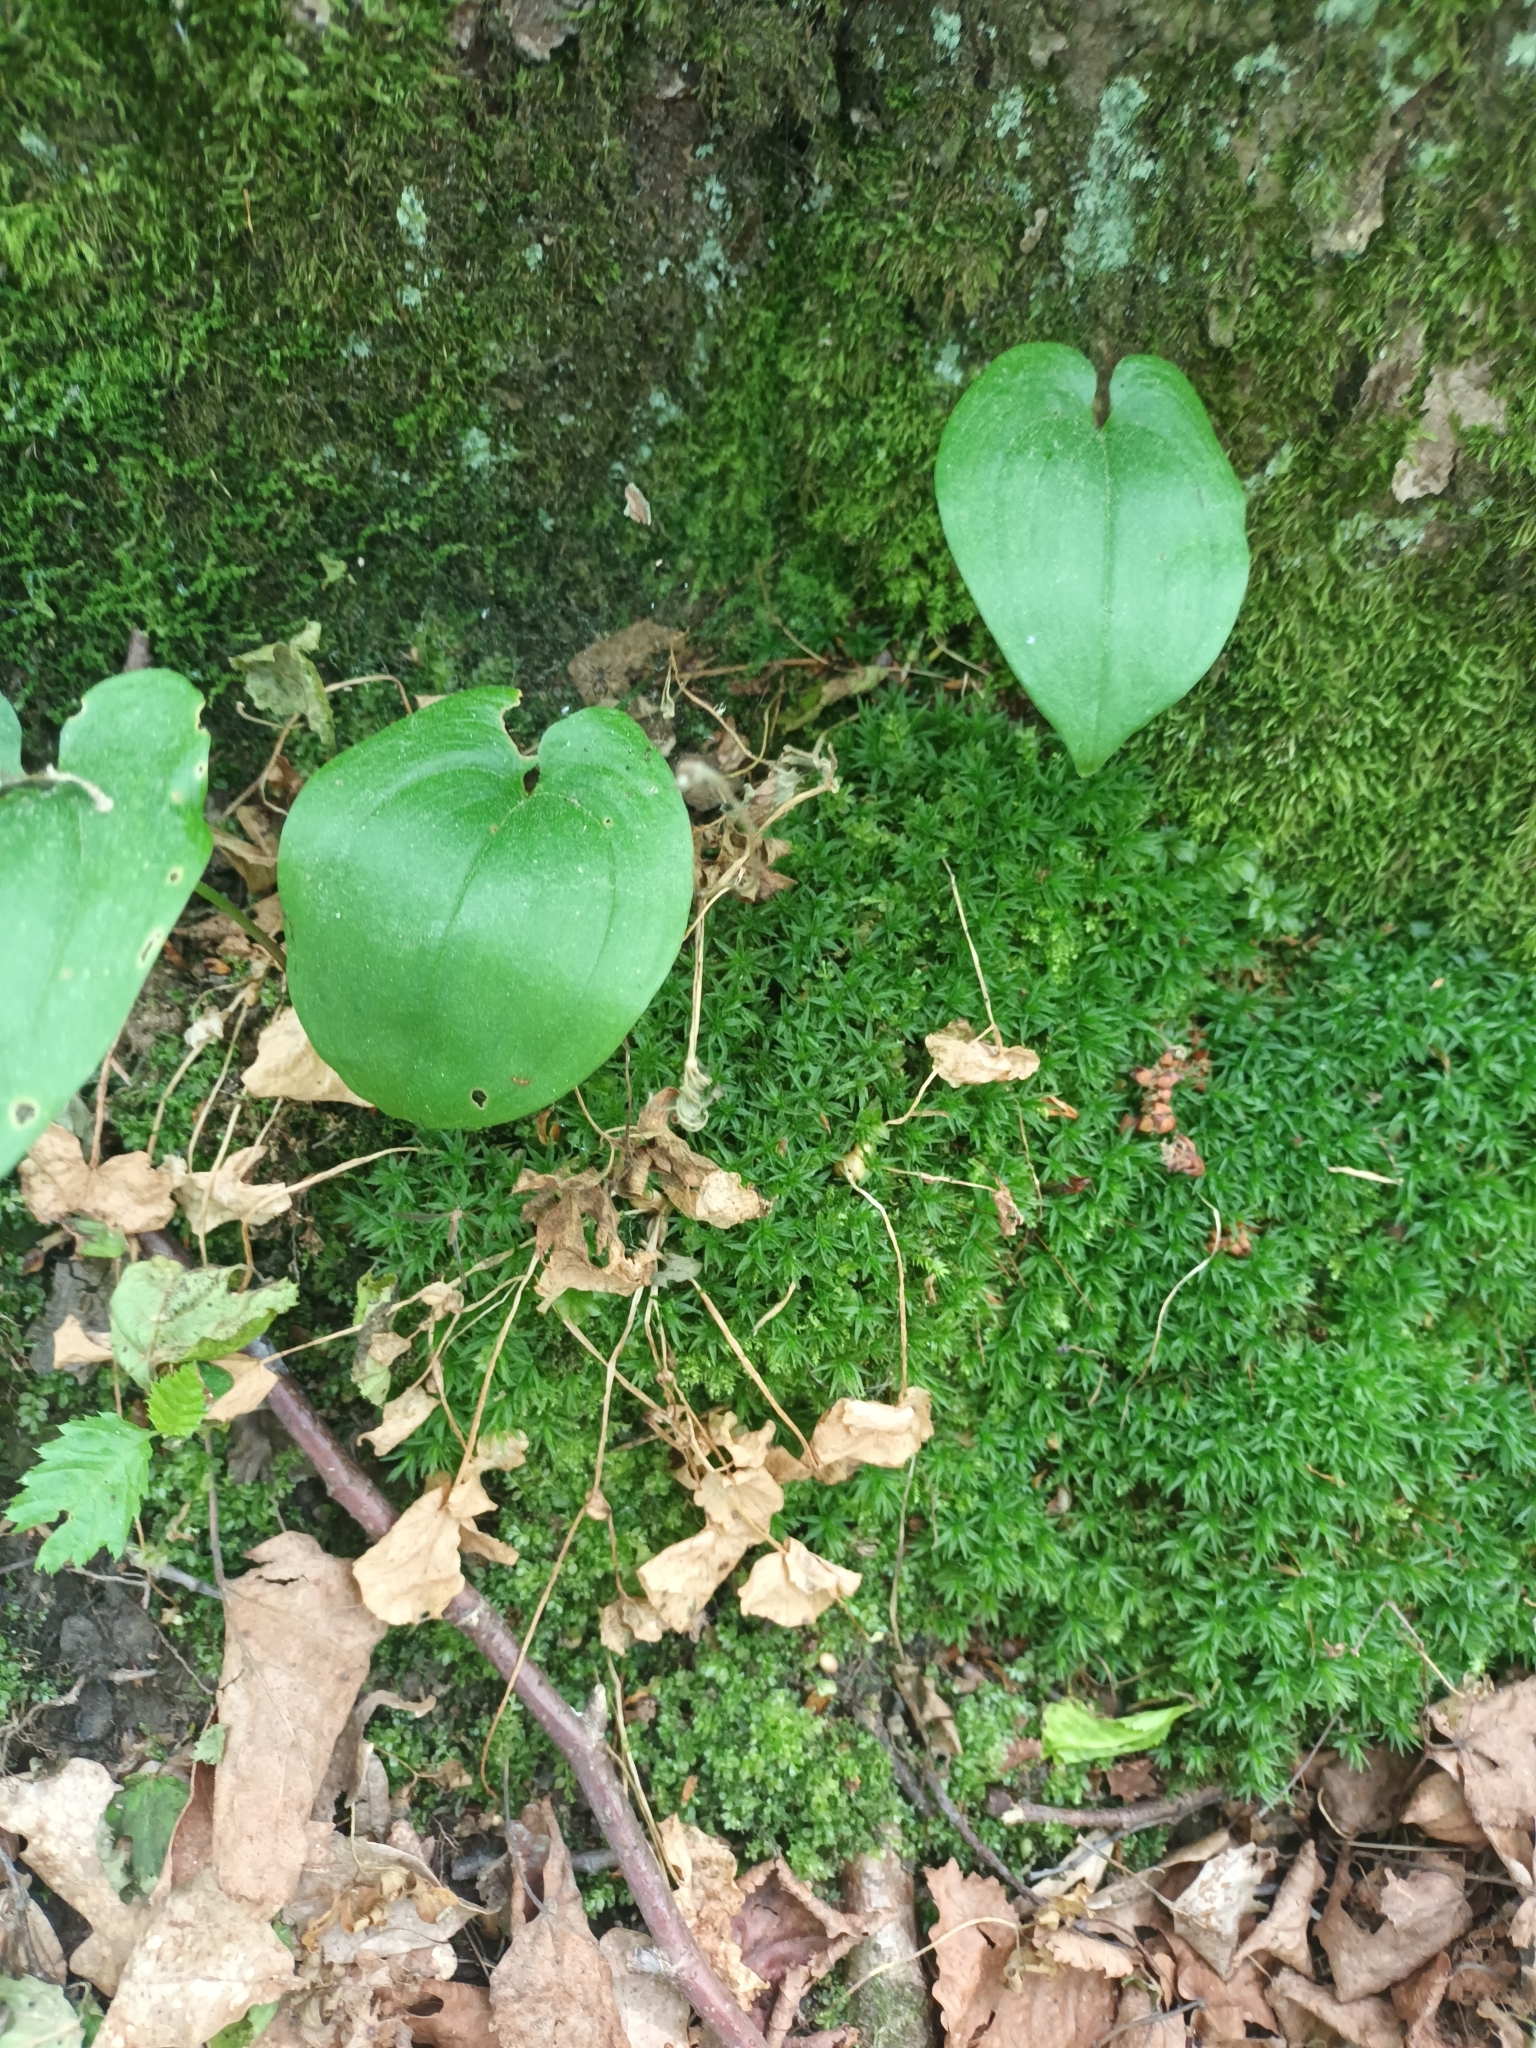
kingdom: Plantae
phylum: Tracheophyta
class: Liliopsida
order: Asparagales
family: Asparagaceae
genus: Maianthemum
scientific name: Maianthemum bifolium
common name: May lily
